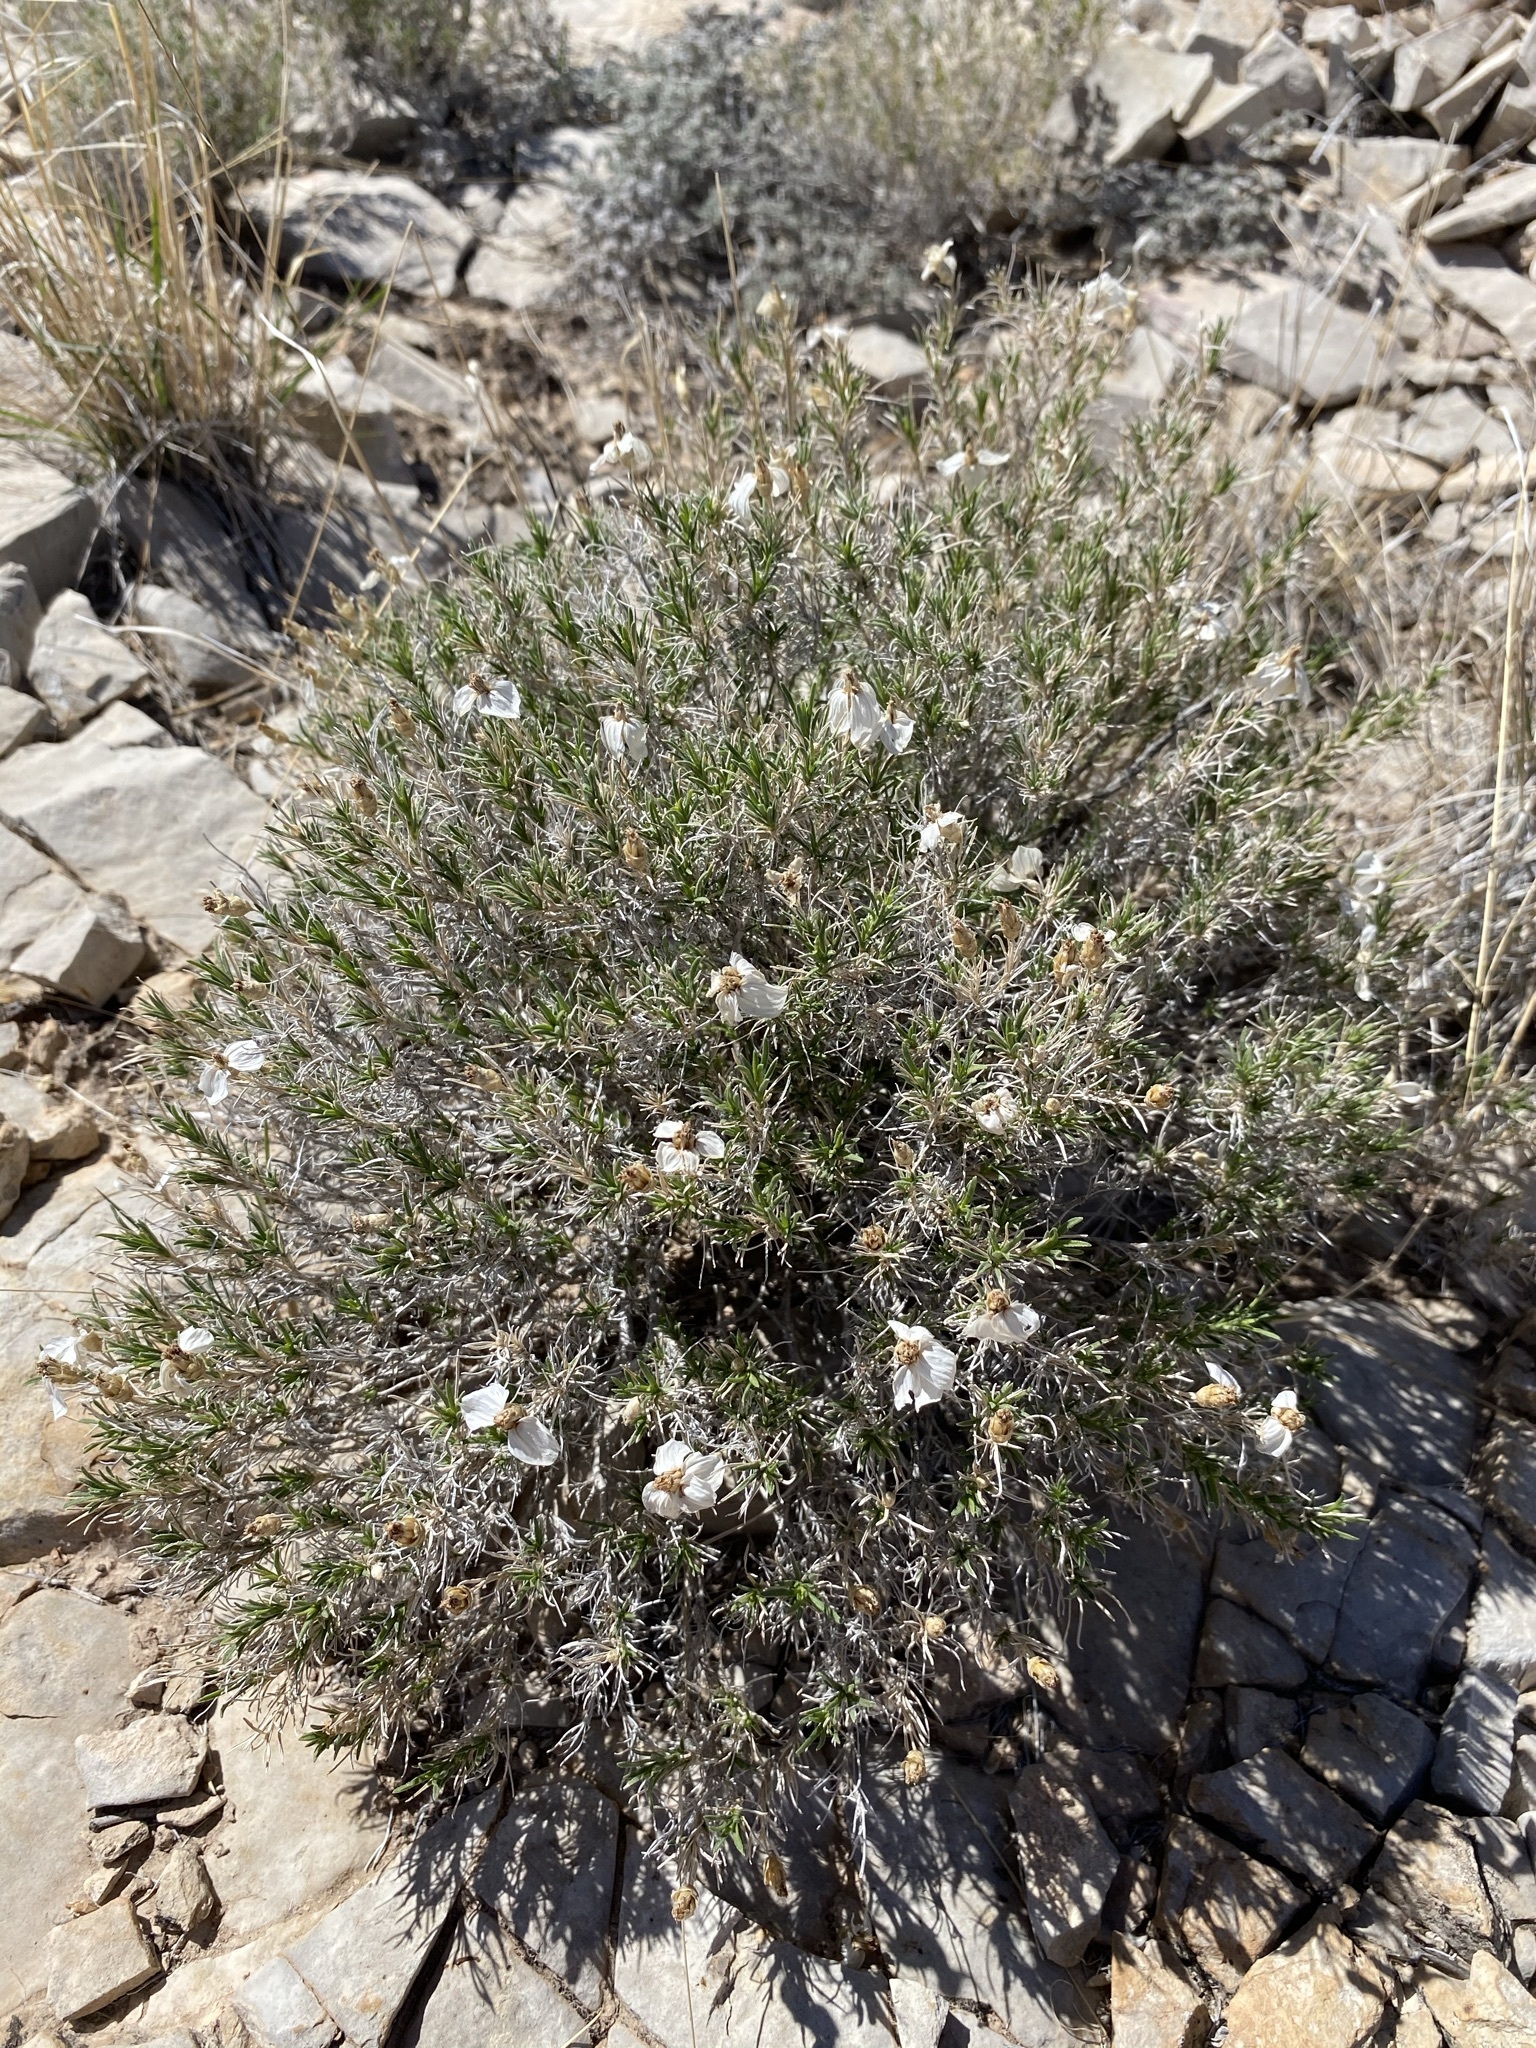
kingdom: Plantae
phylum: Tracheophyta
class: Magnoliopsida
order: Asterales
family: Asteraceae
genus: Zinnia
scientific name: Zinnia acerosa
